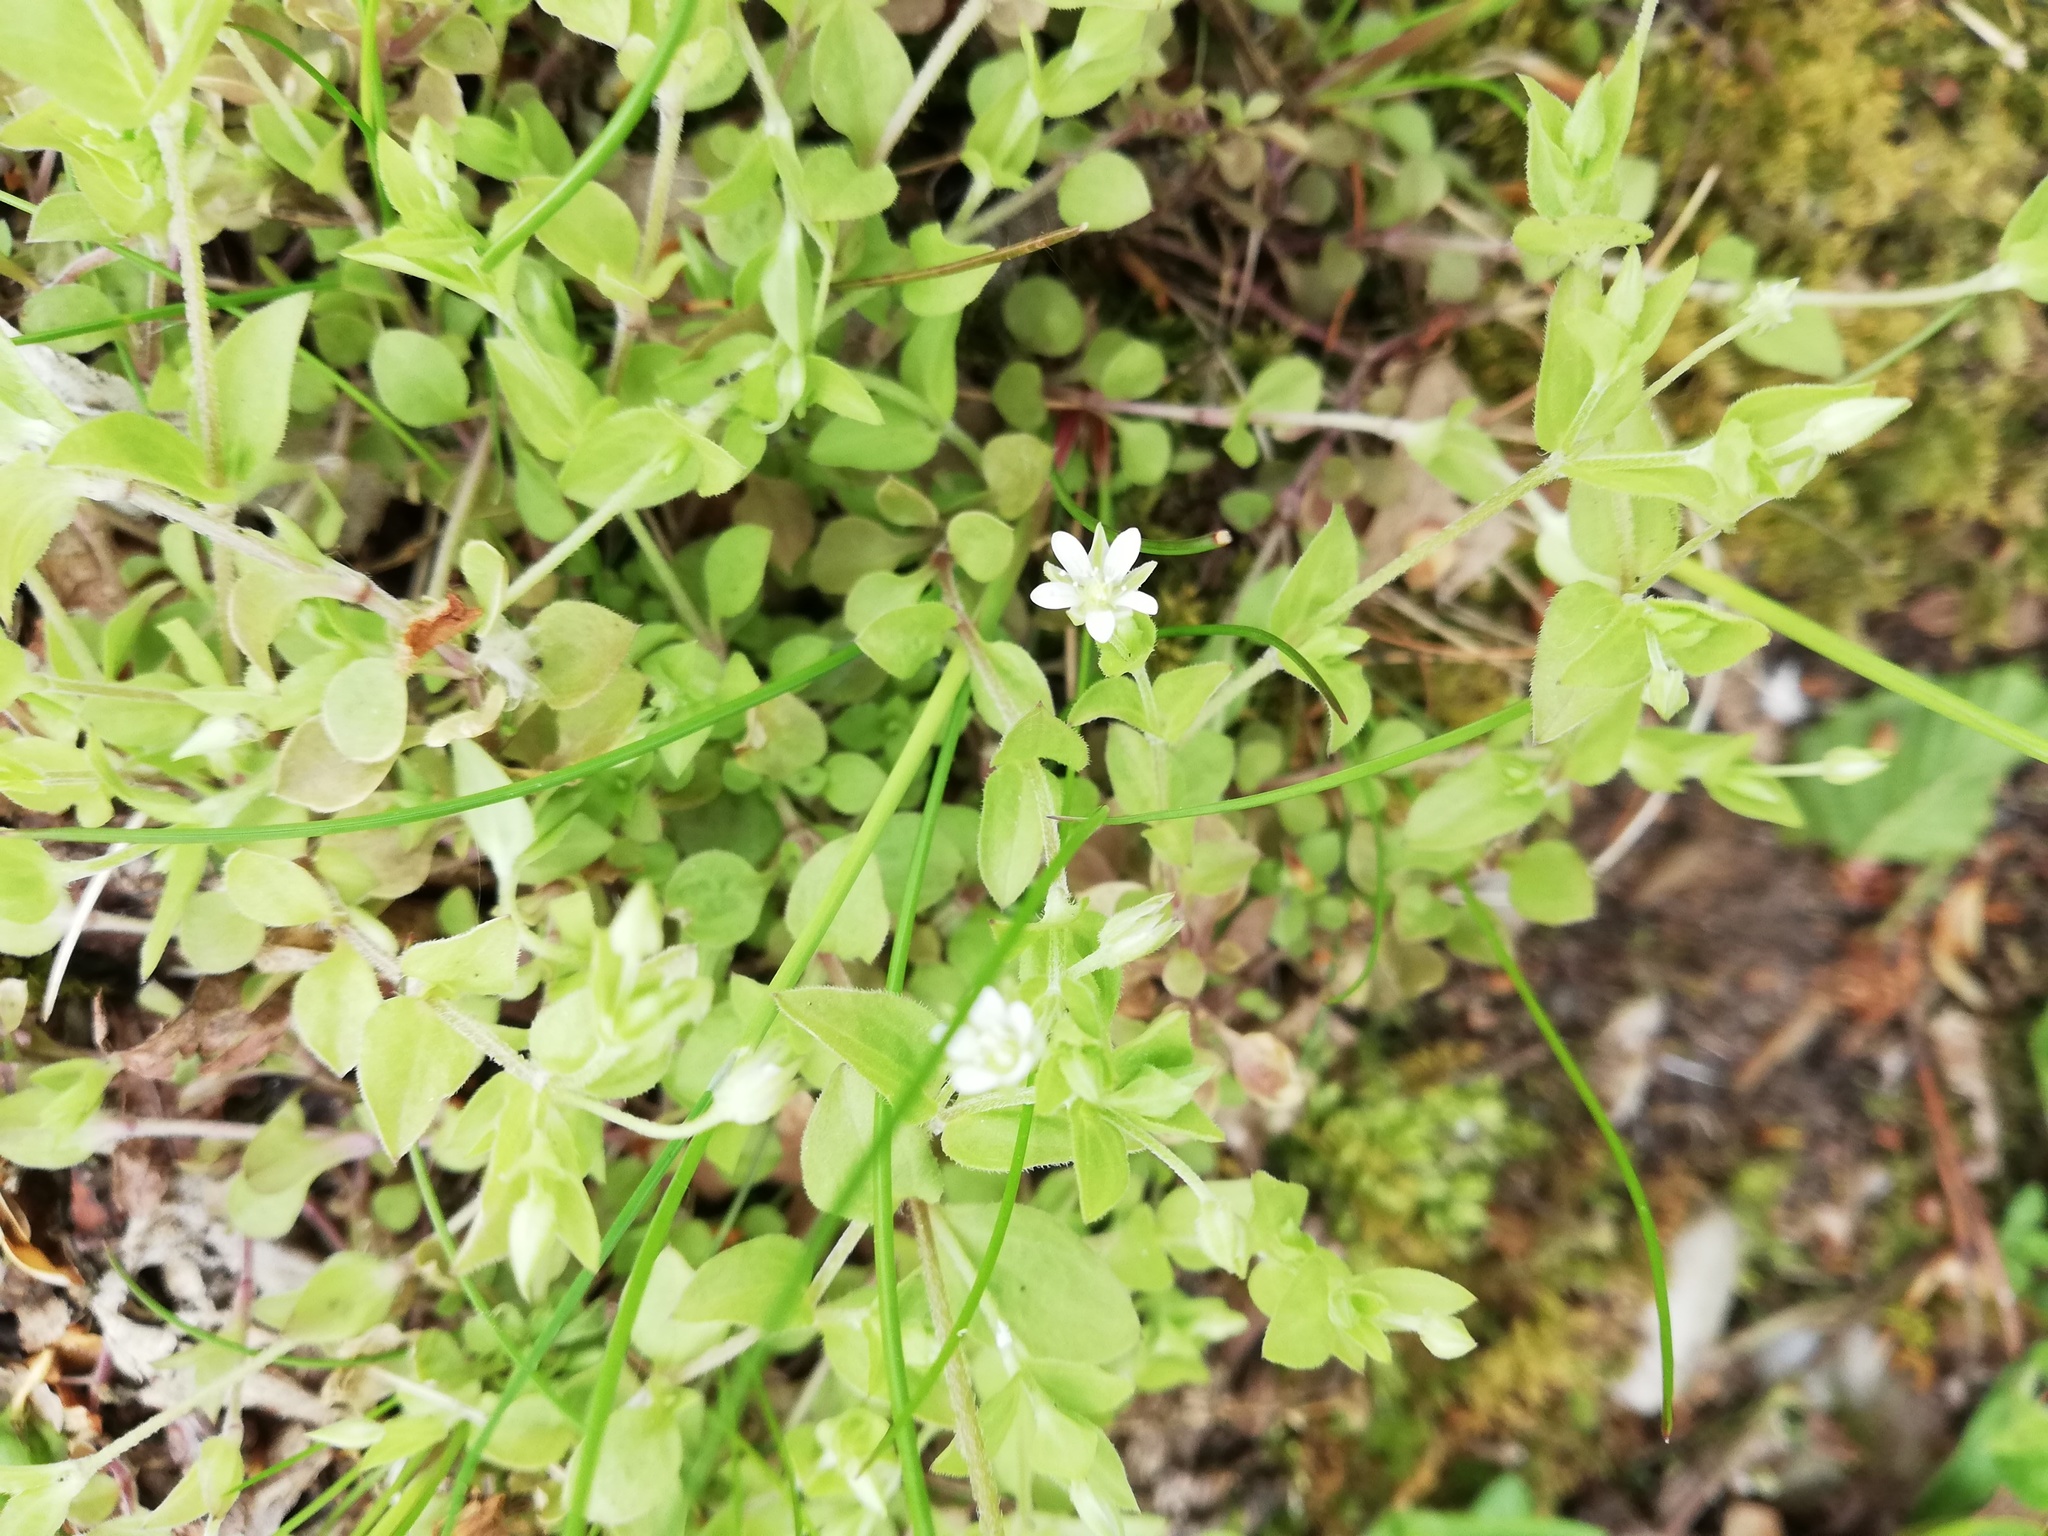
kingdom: Plantae
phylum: Tracheophyta
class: Magnoliopsida
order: Caryophyllales
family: Caryophyllaceae
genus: Moehringia
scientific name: Moehringia trinervia
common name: Three-nerved sandwort
